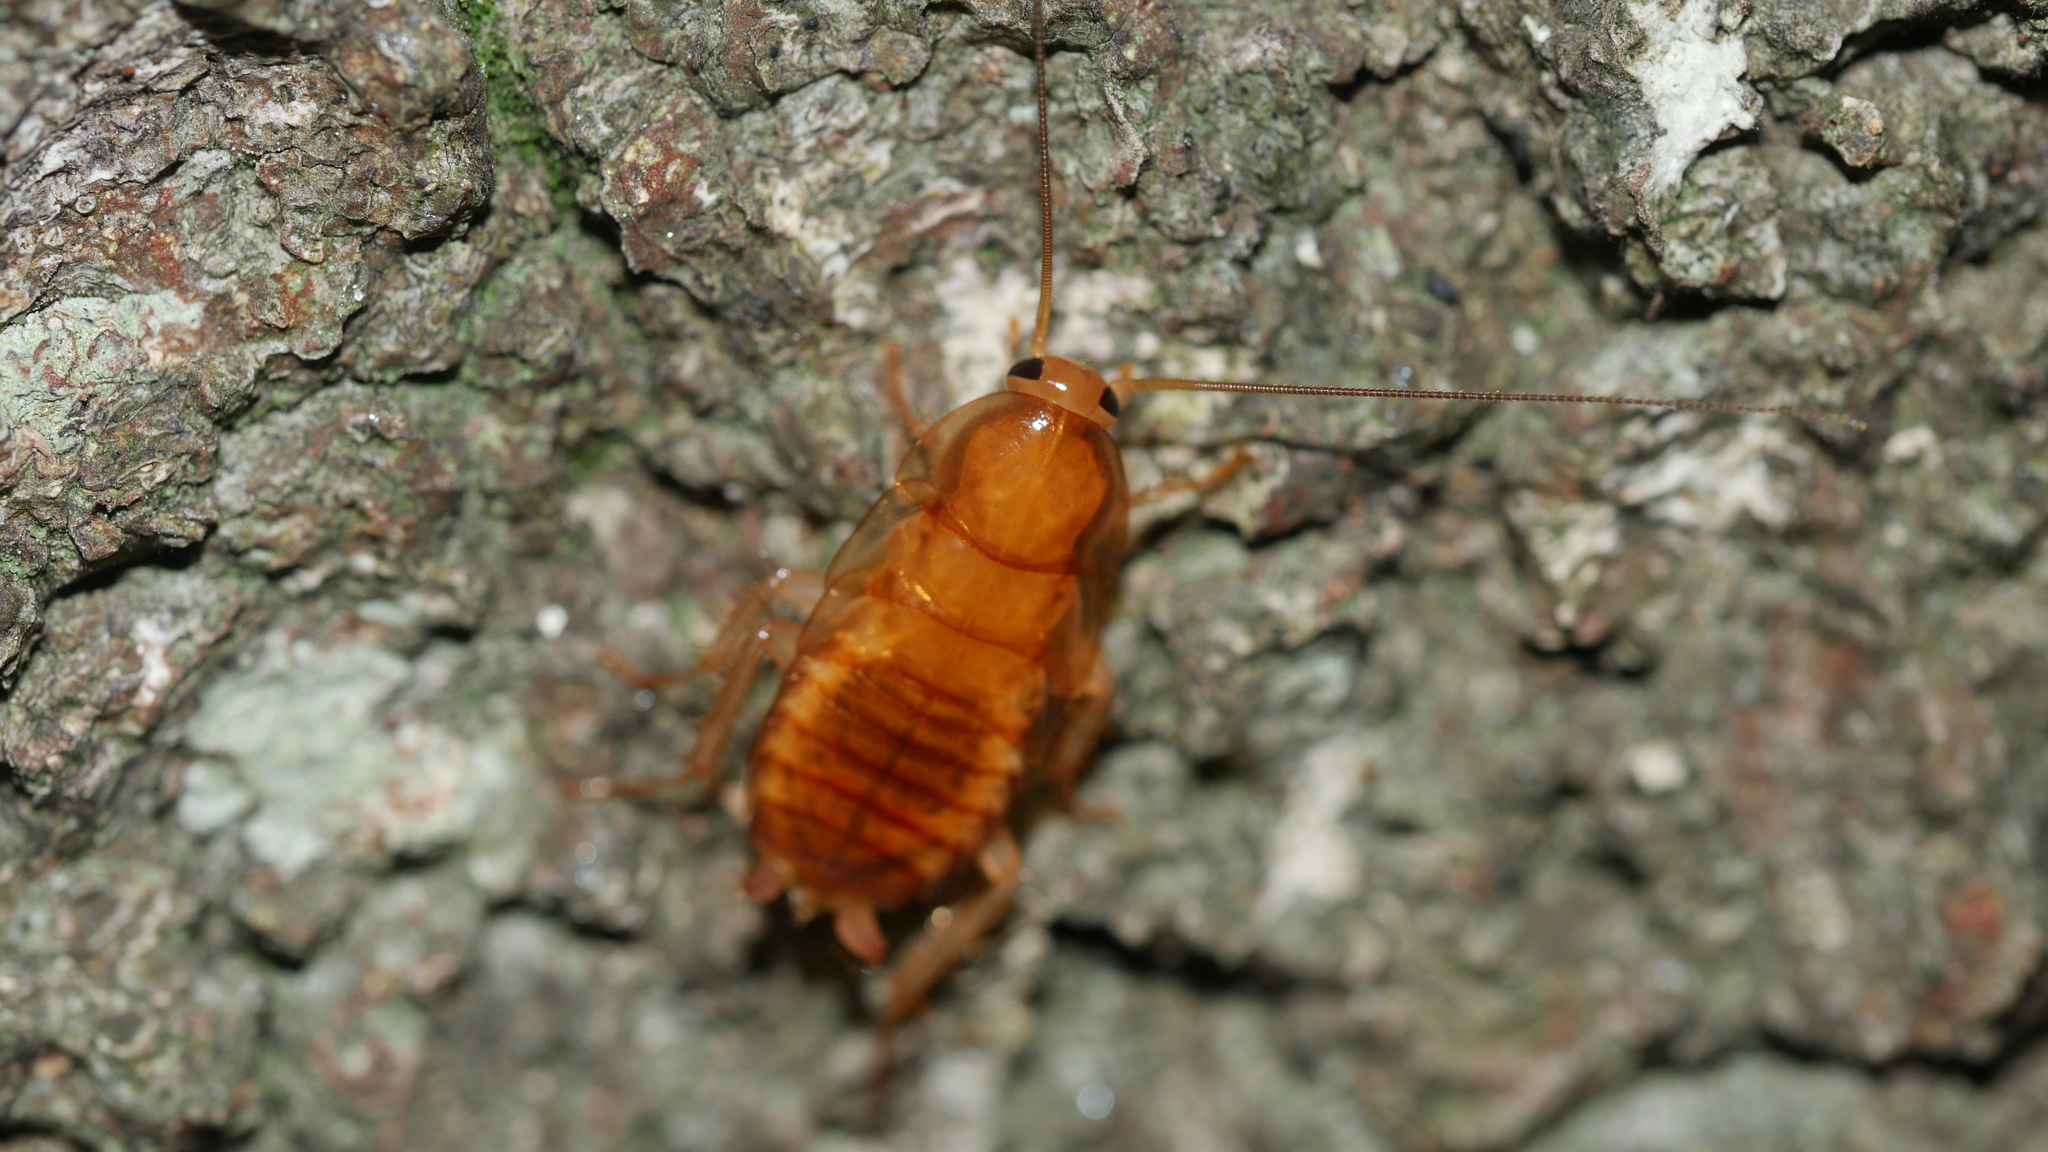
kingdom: Animalia
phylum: Arthropoda
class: Insecta
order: Blattodea
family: Ectobiidae
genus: Parcoblatta
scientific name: Parcoblatta
